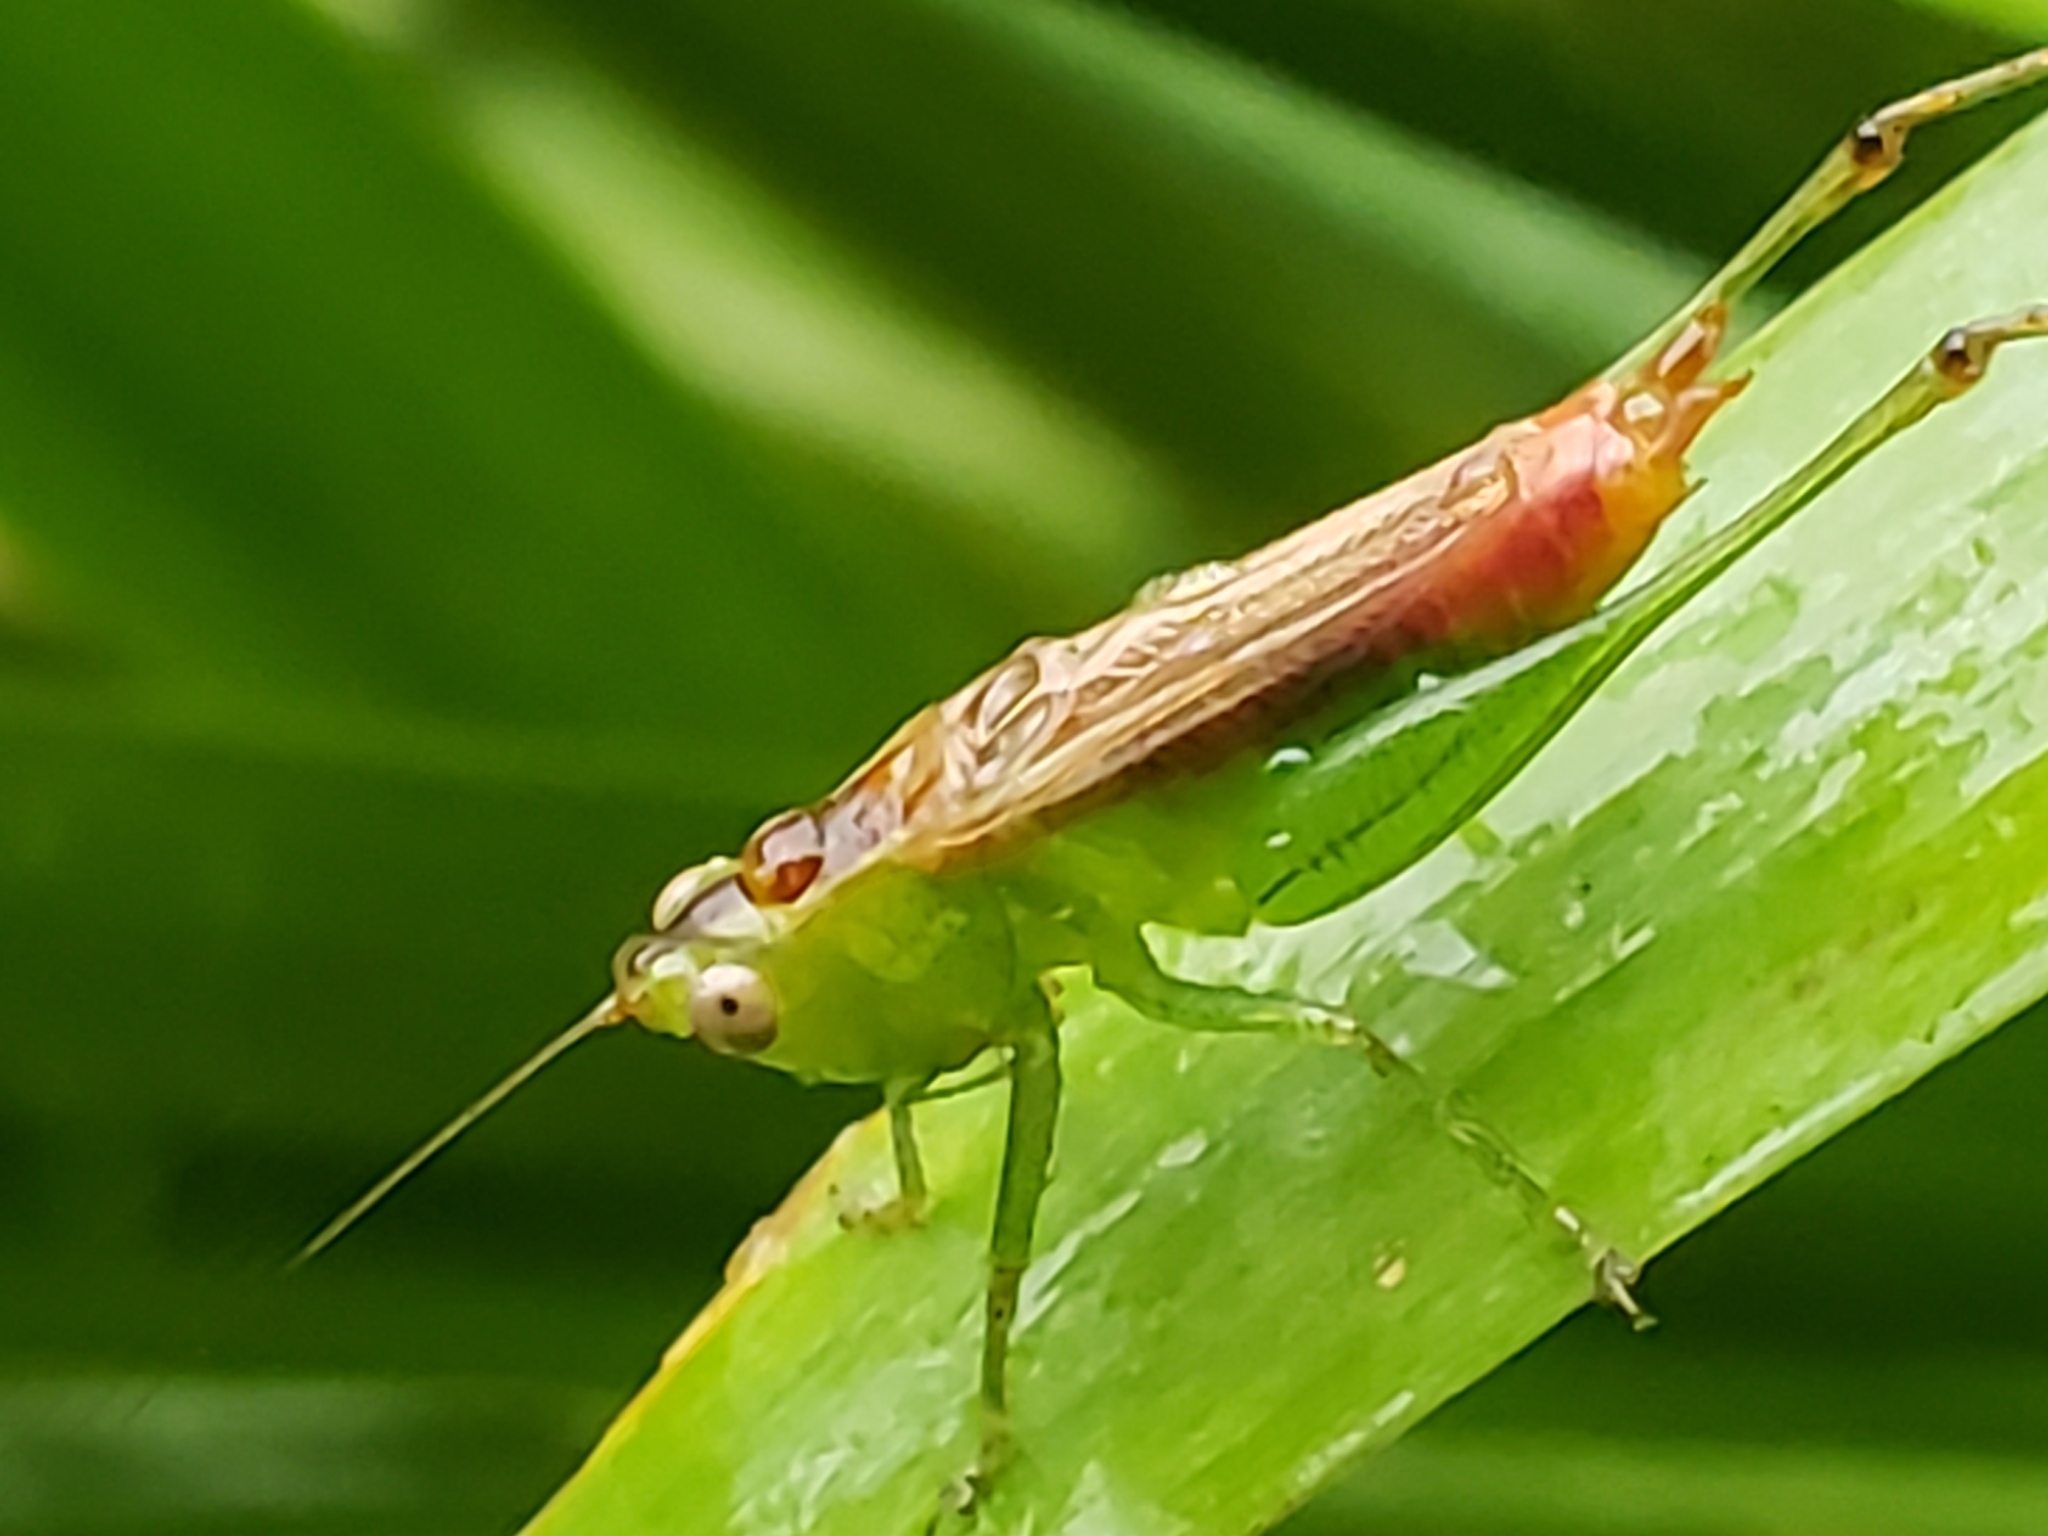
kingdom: Animalia
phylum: Arthropoda
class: Insecta
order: Orthoptera
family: Tettigoniidae
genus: Conocephalus
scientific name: Conocephalus brevipennis
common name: Short-winged meadow katydid
